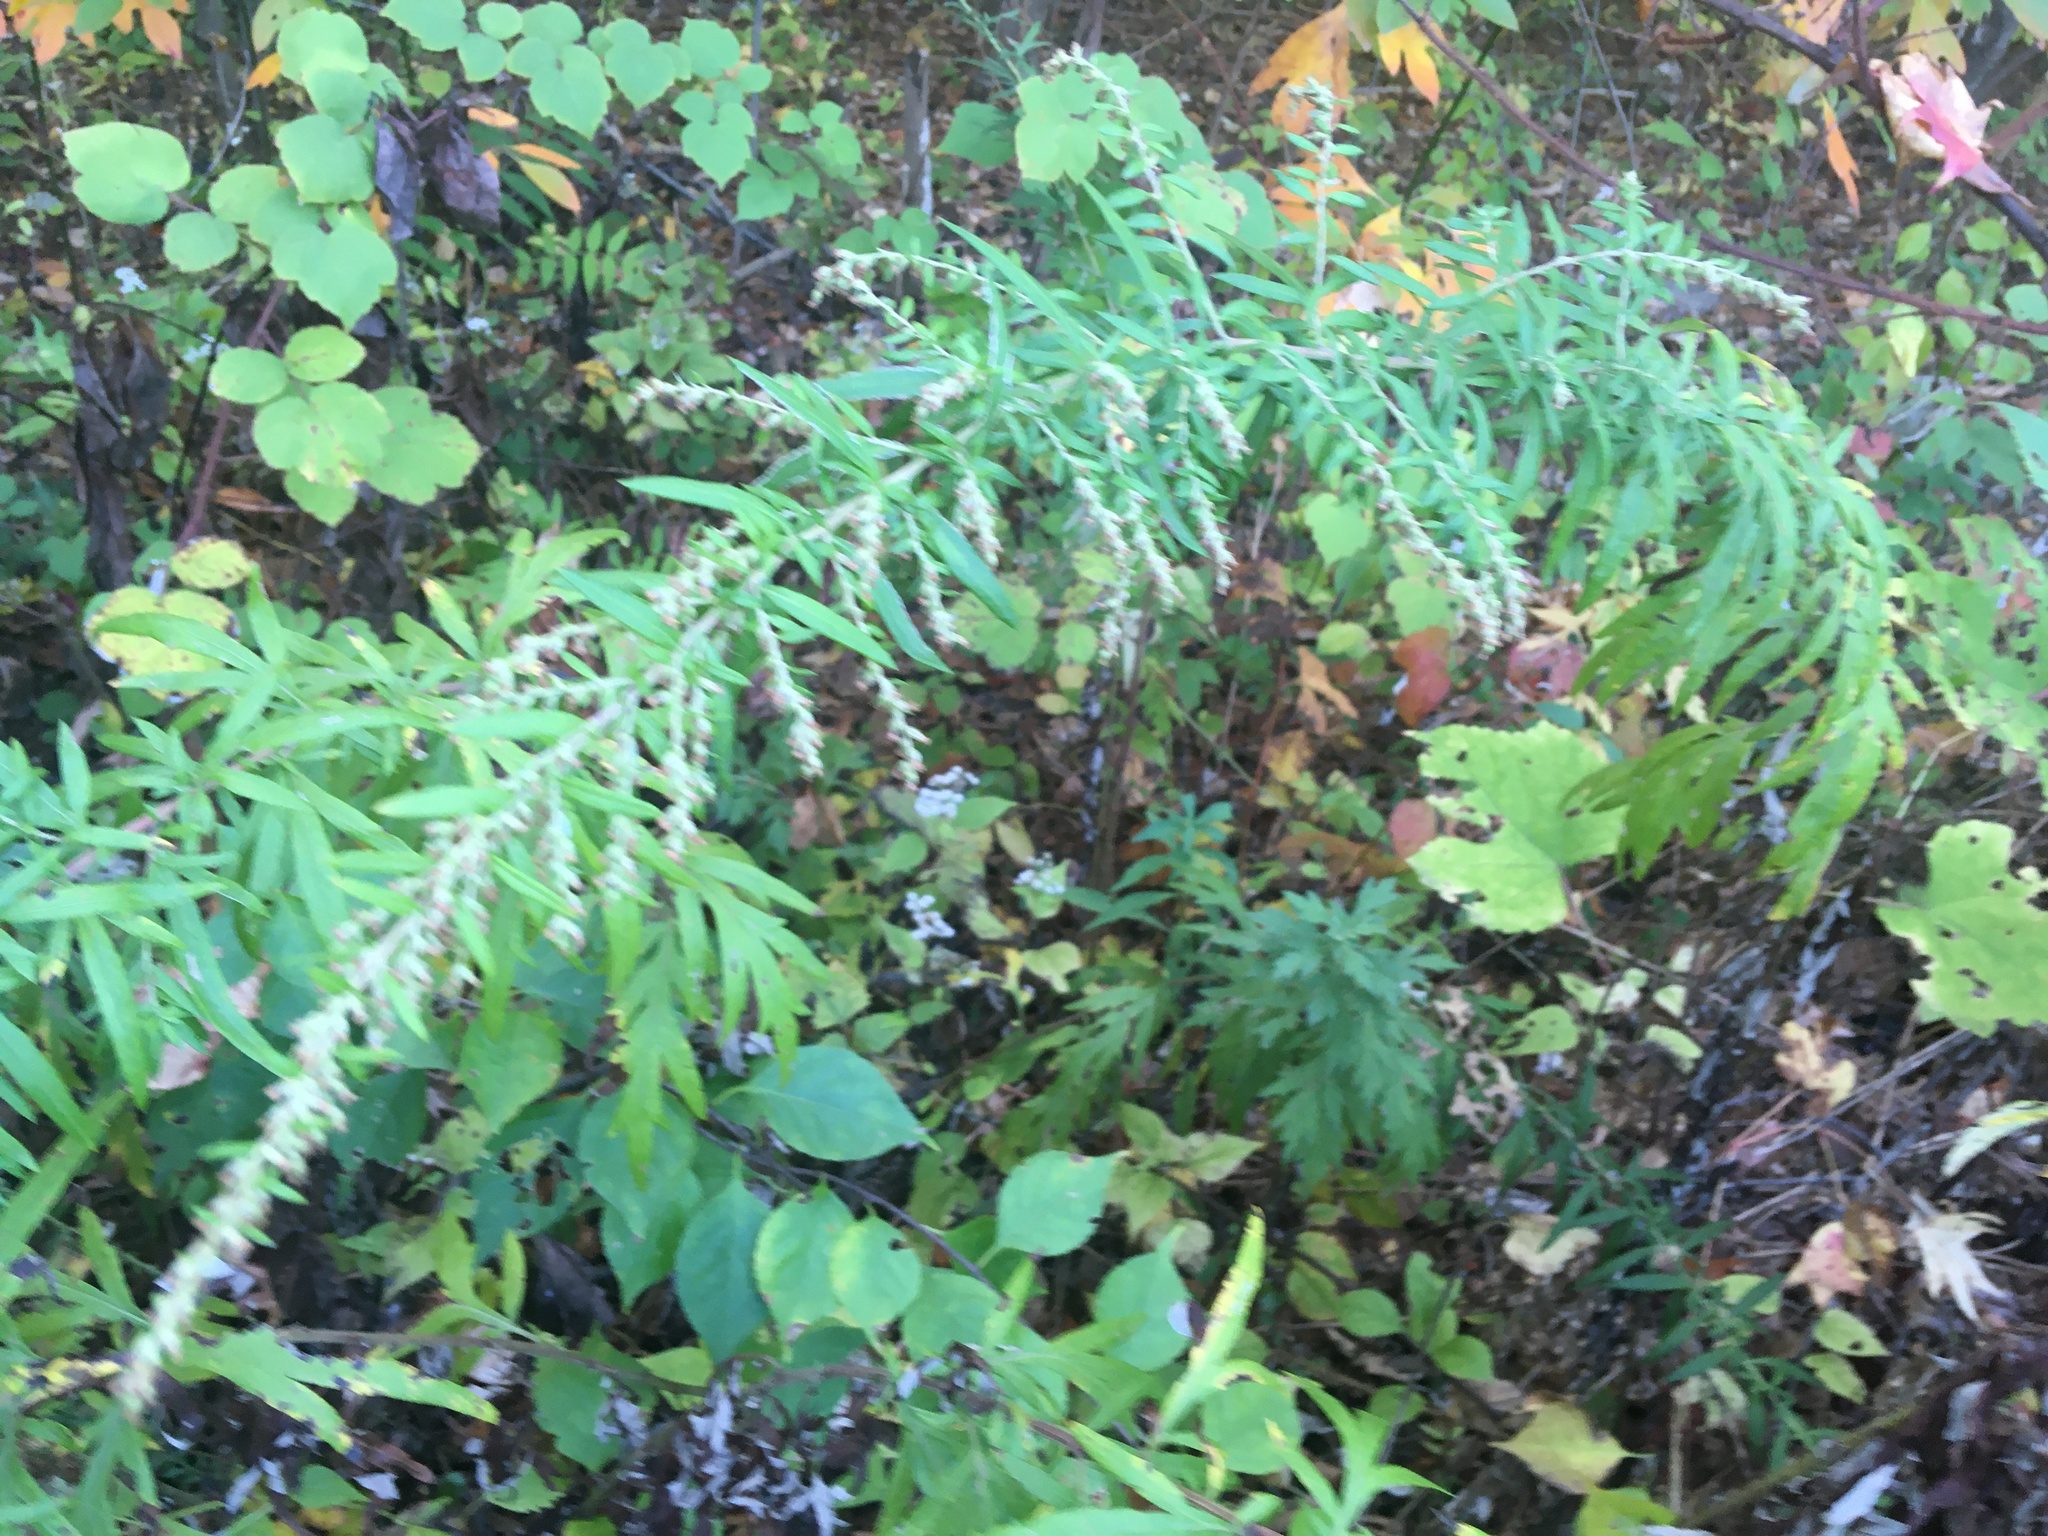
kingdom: Plantae
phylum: Tracheophyta
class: Magnoliopsida
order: Asterales
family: Asteraceae
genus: Artemisia
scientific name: Artemisia vulgaris
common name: Mugwort
